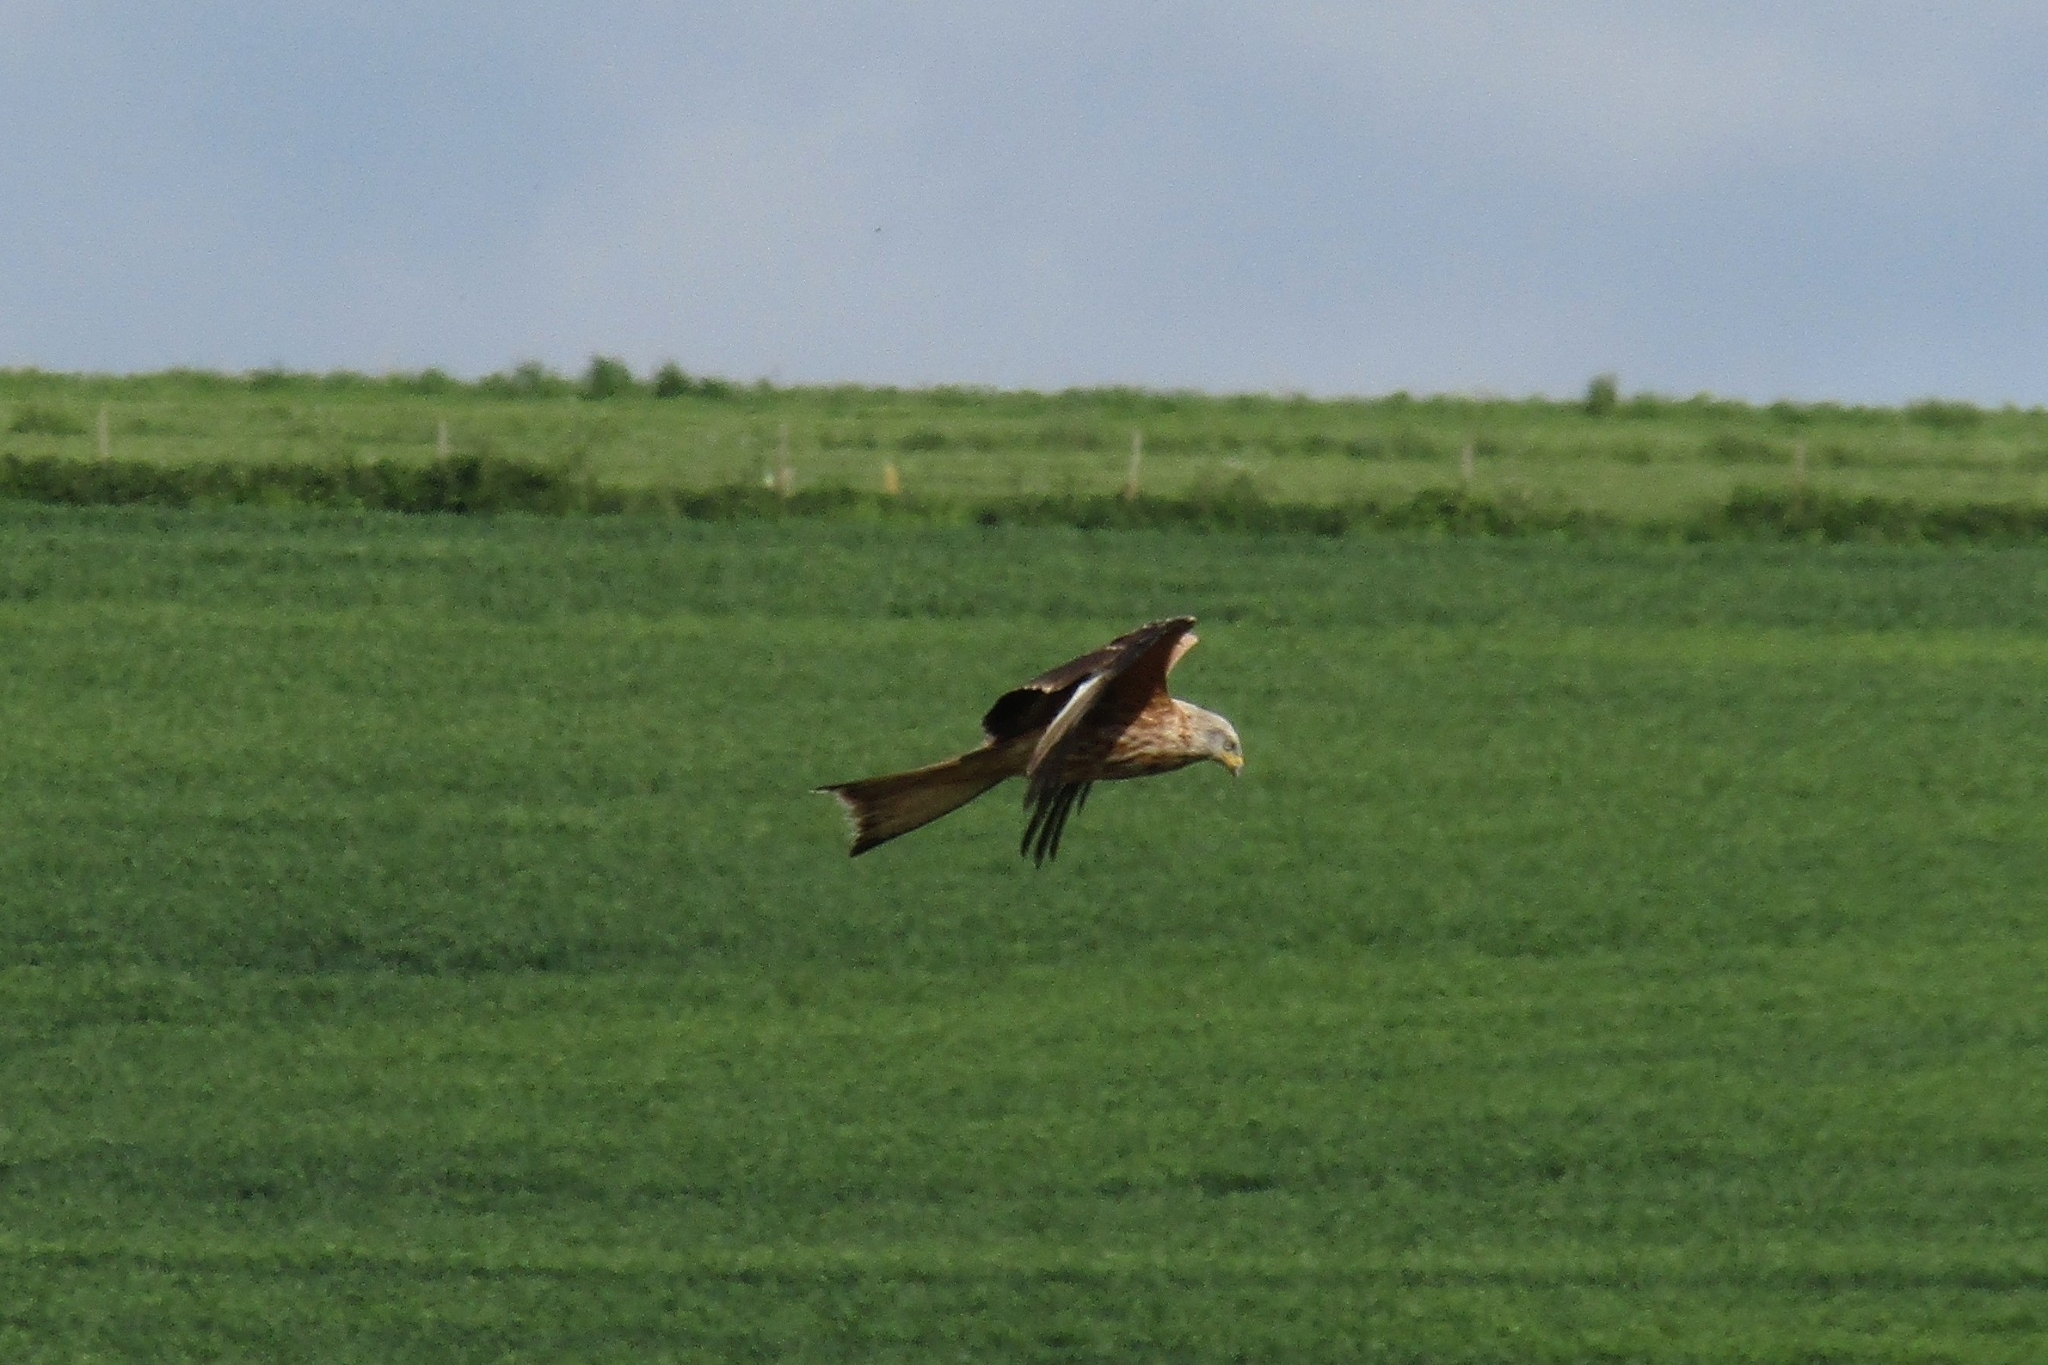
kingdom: Animalia
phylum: Chordata
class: Aves
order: Accipitriformes
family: Accipitridae
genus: Milvus
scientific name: Milvus milvus
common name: Red kite
